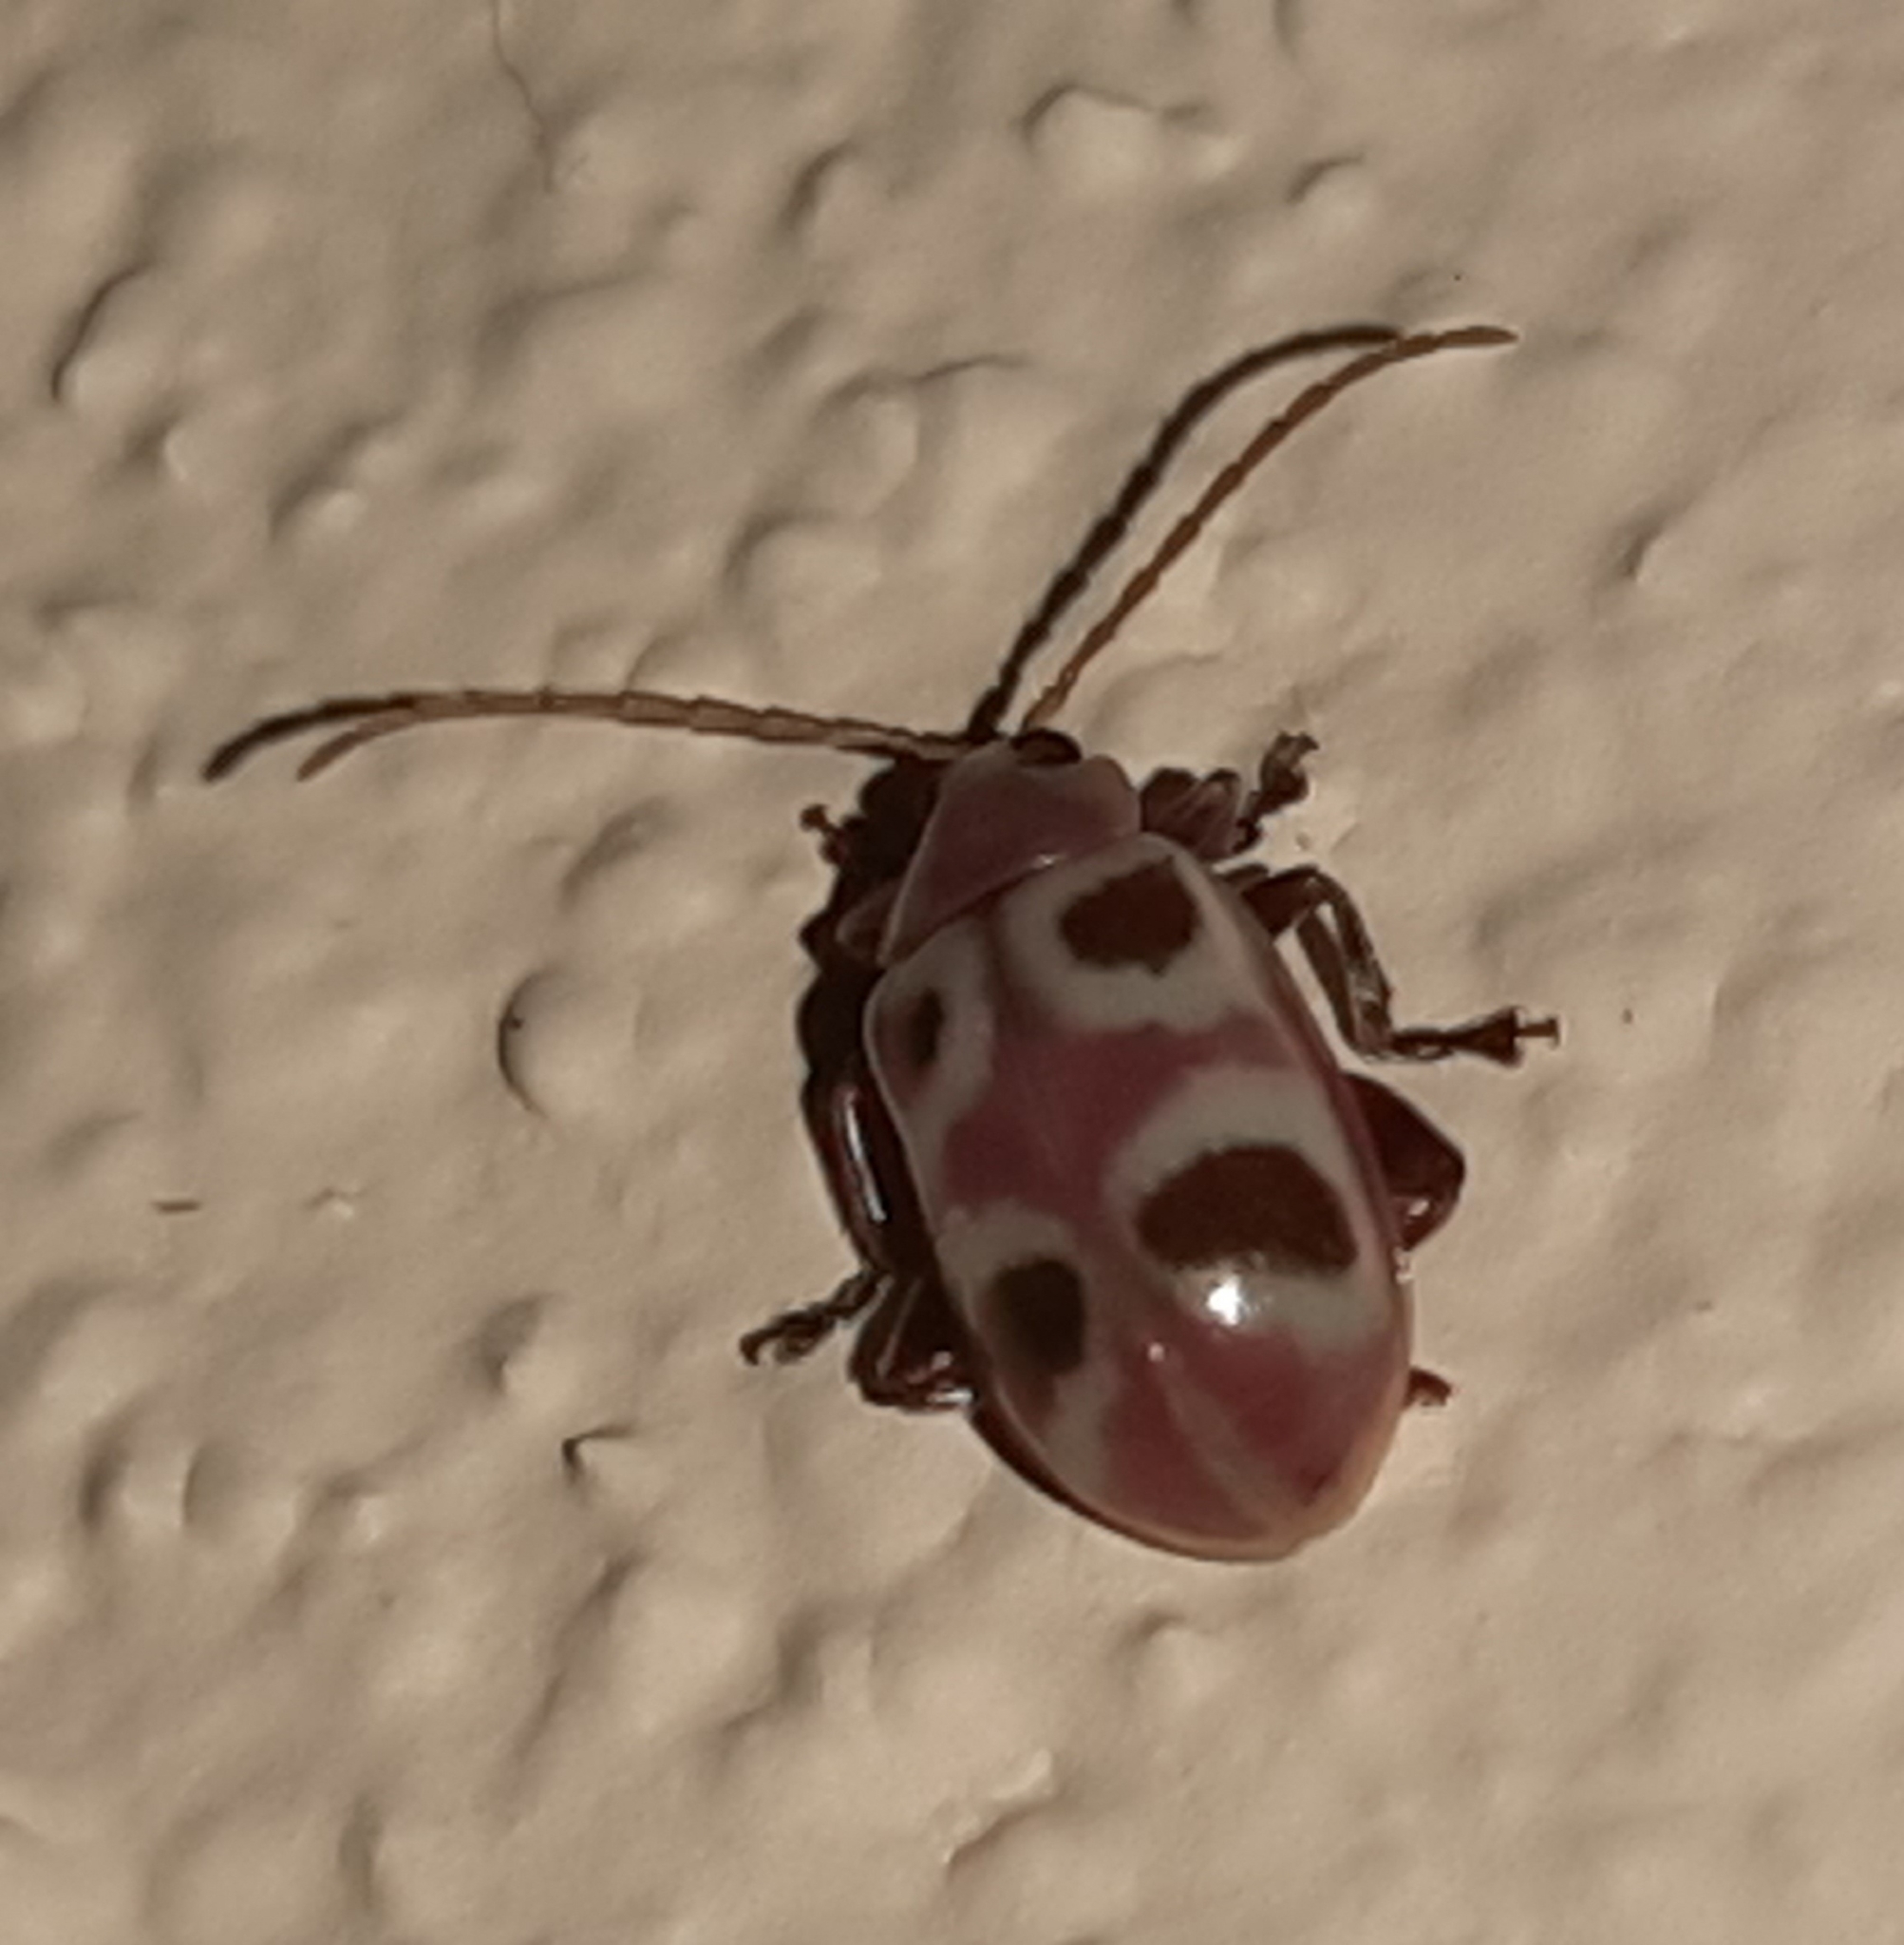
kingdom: Animalia
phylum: Arthropoda
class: Insecta
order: Coleoptera
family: Chrysomelidae
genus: Omophoita
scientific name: Omophoita
